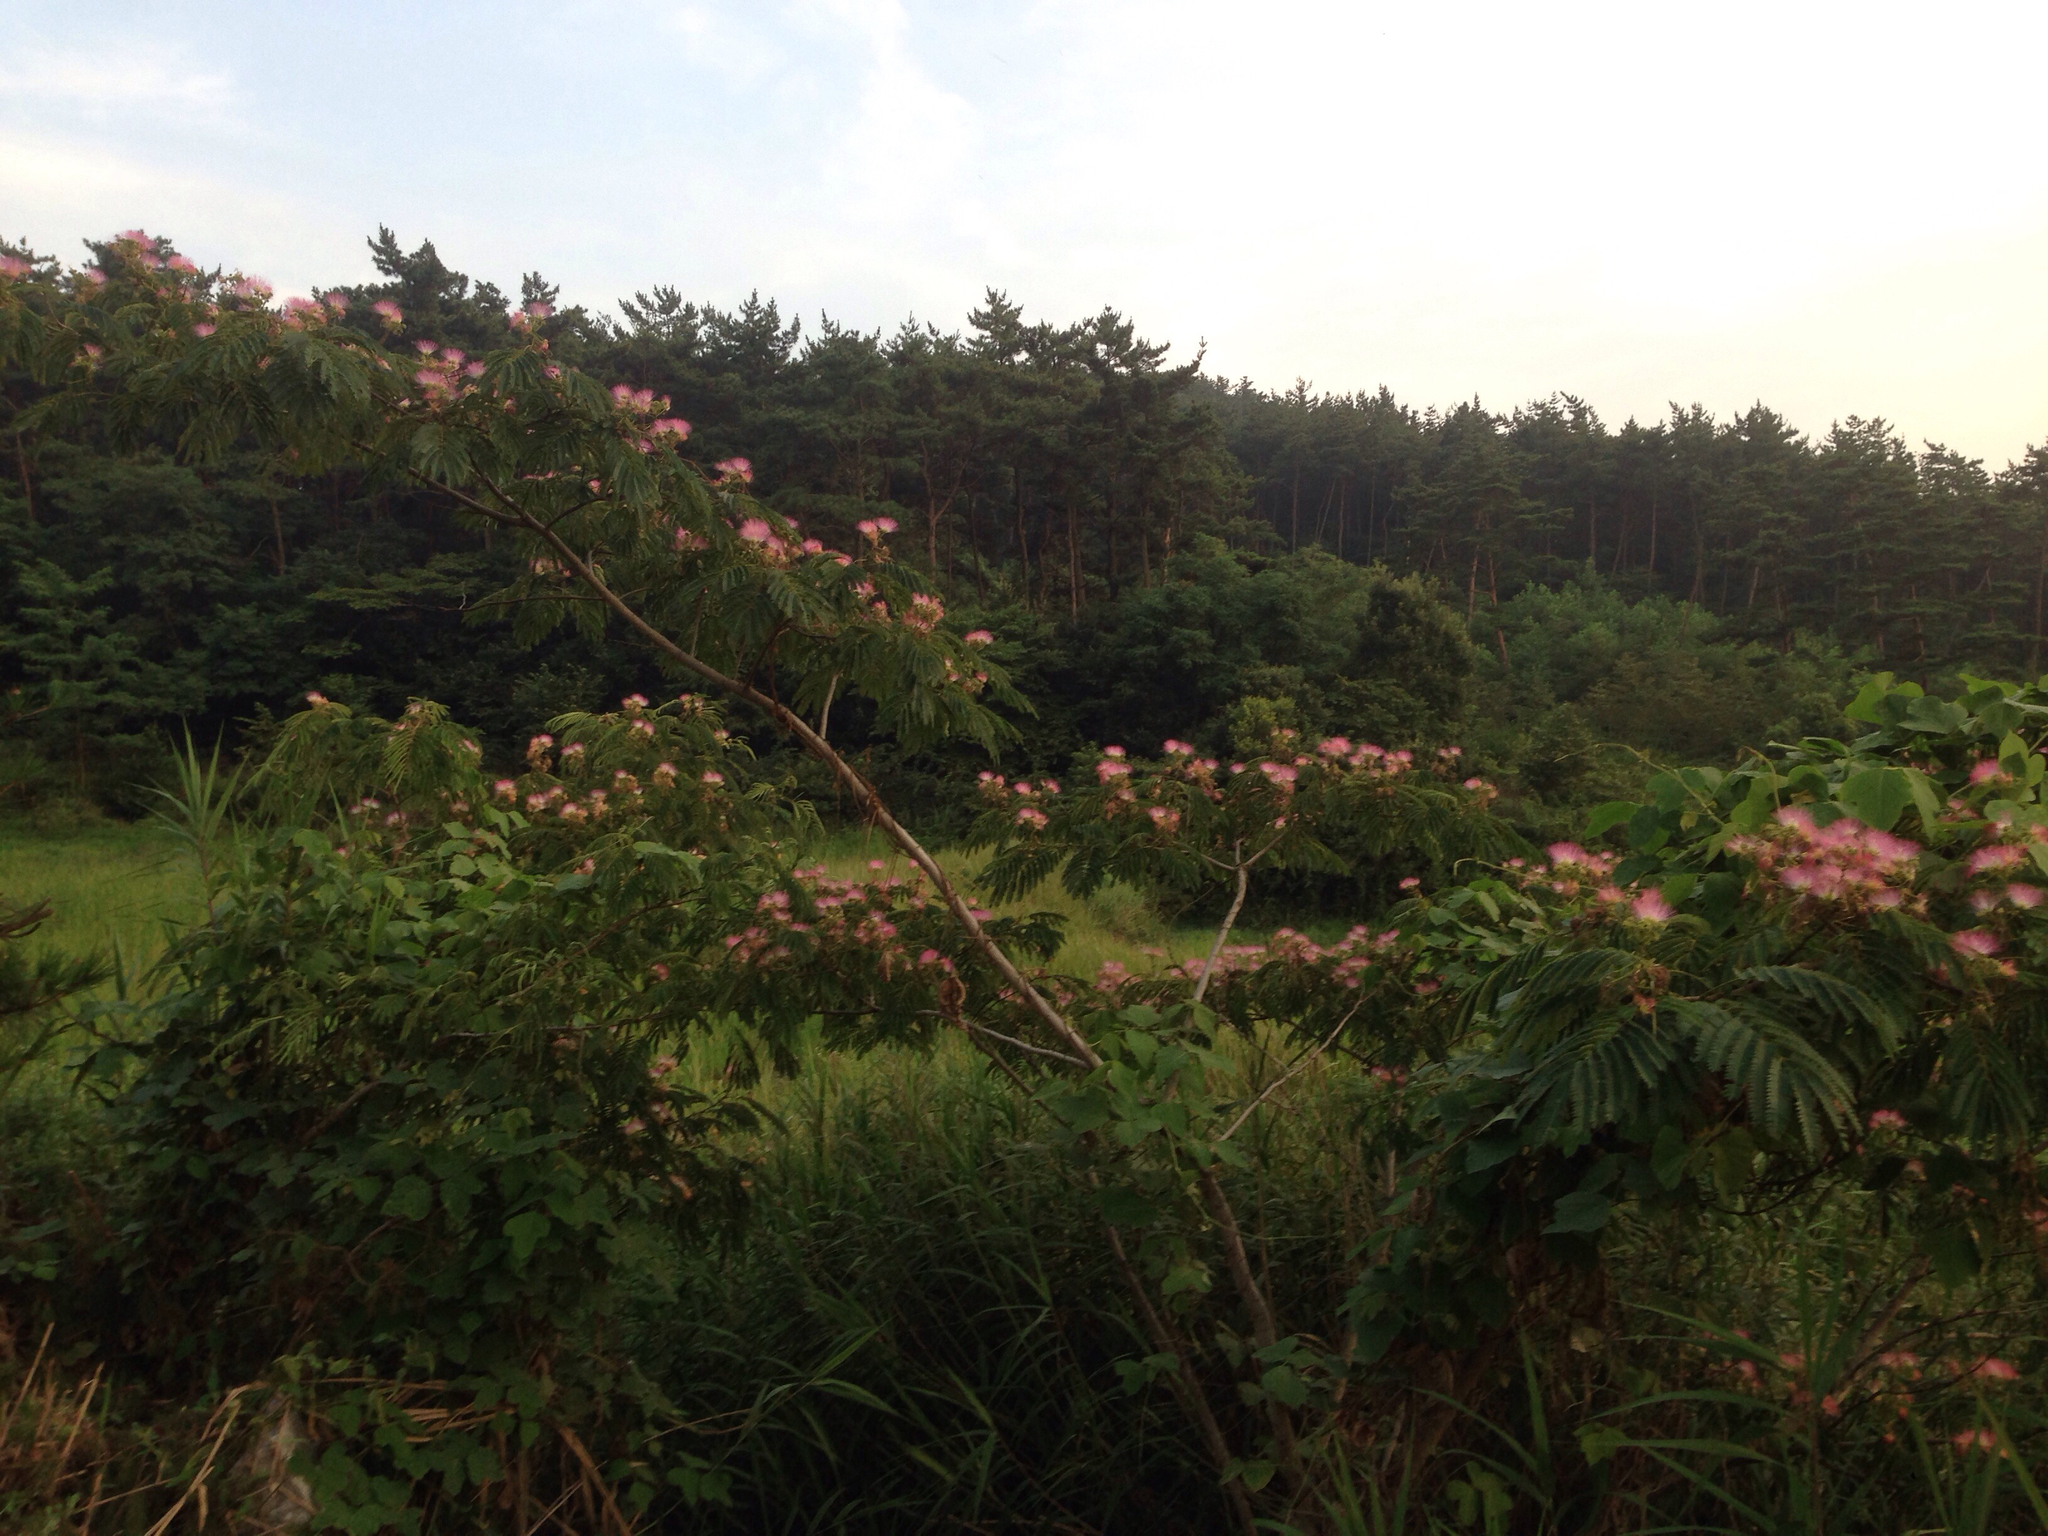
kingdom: Plantae
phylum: Tracheophyta
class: Magnoliopsida
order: Fabales
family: Fabaceae
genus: Albizia
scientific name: Albizia julibrissin
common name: Silktree
